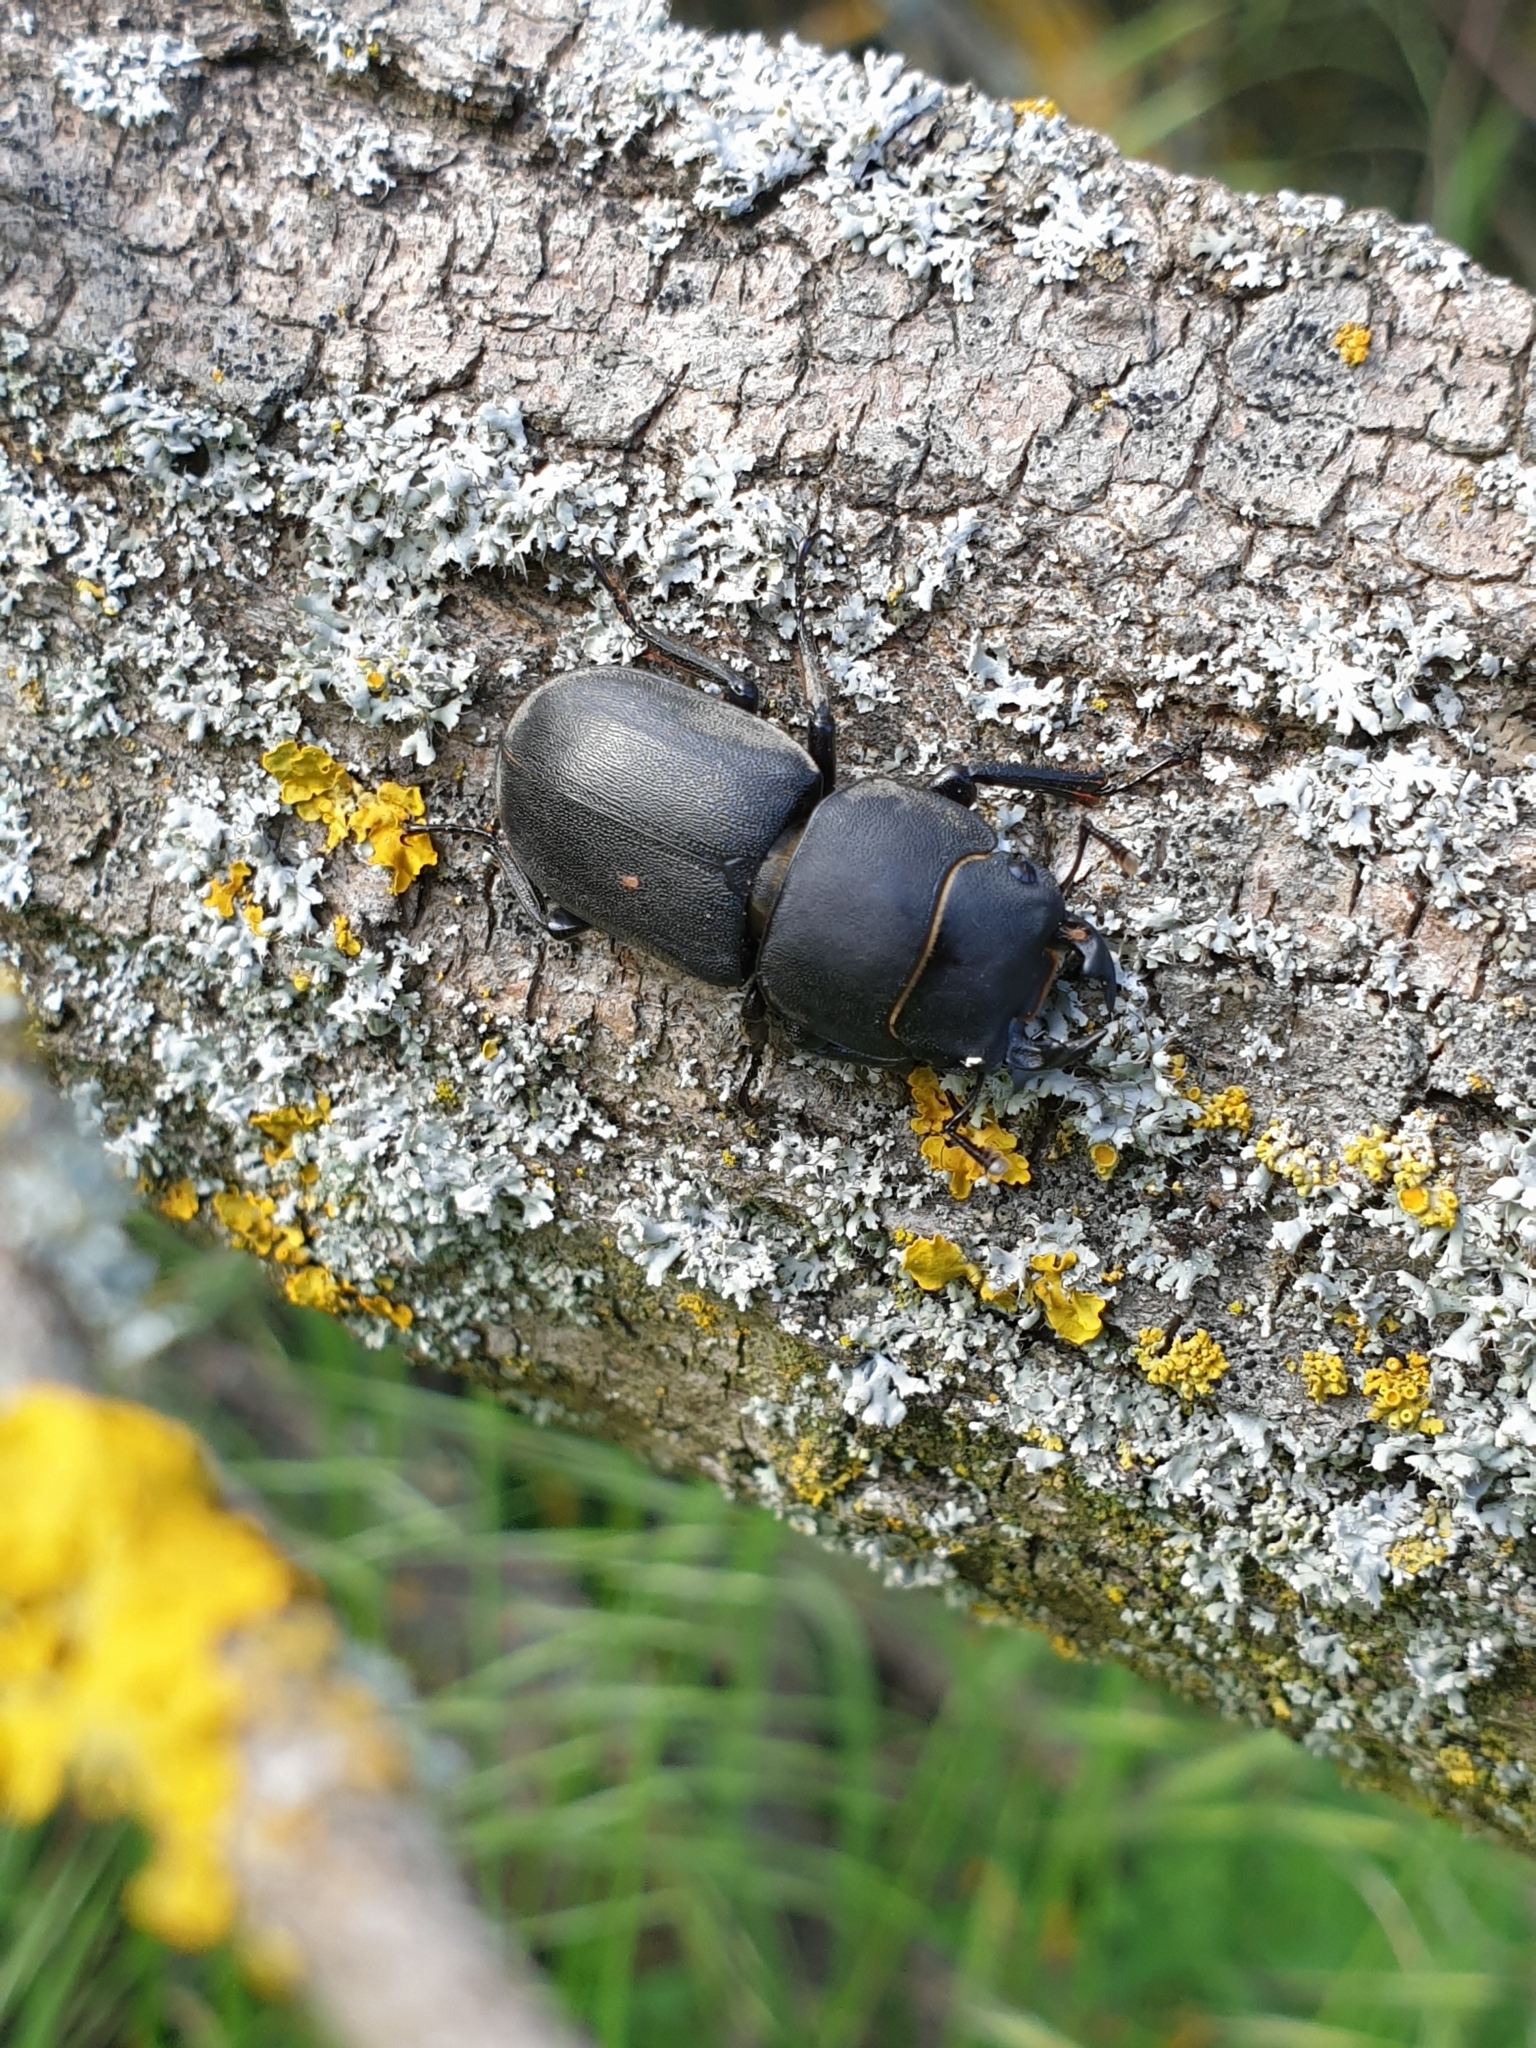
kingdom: Animalia
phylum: Arthropoda
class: Insecta
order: Coleoptera
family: Lucanidae
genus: Dorcus
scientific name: Dorcus parallelipipedus
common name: Lesser stag beetle
